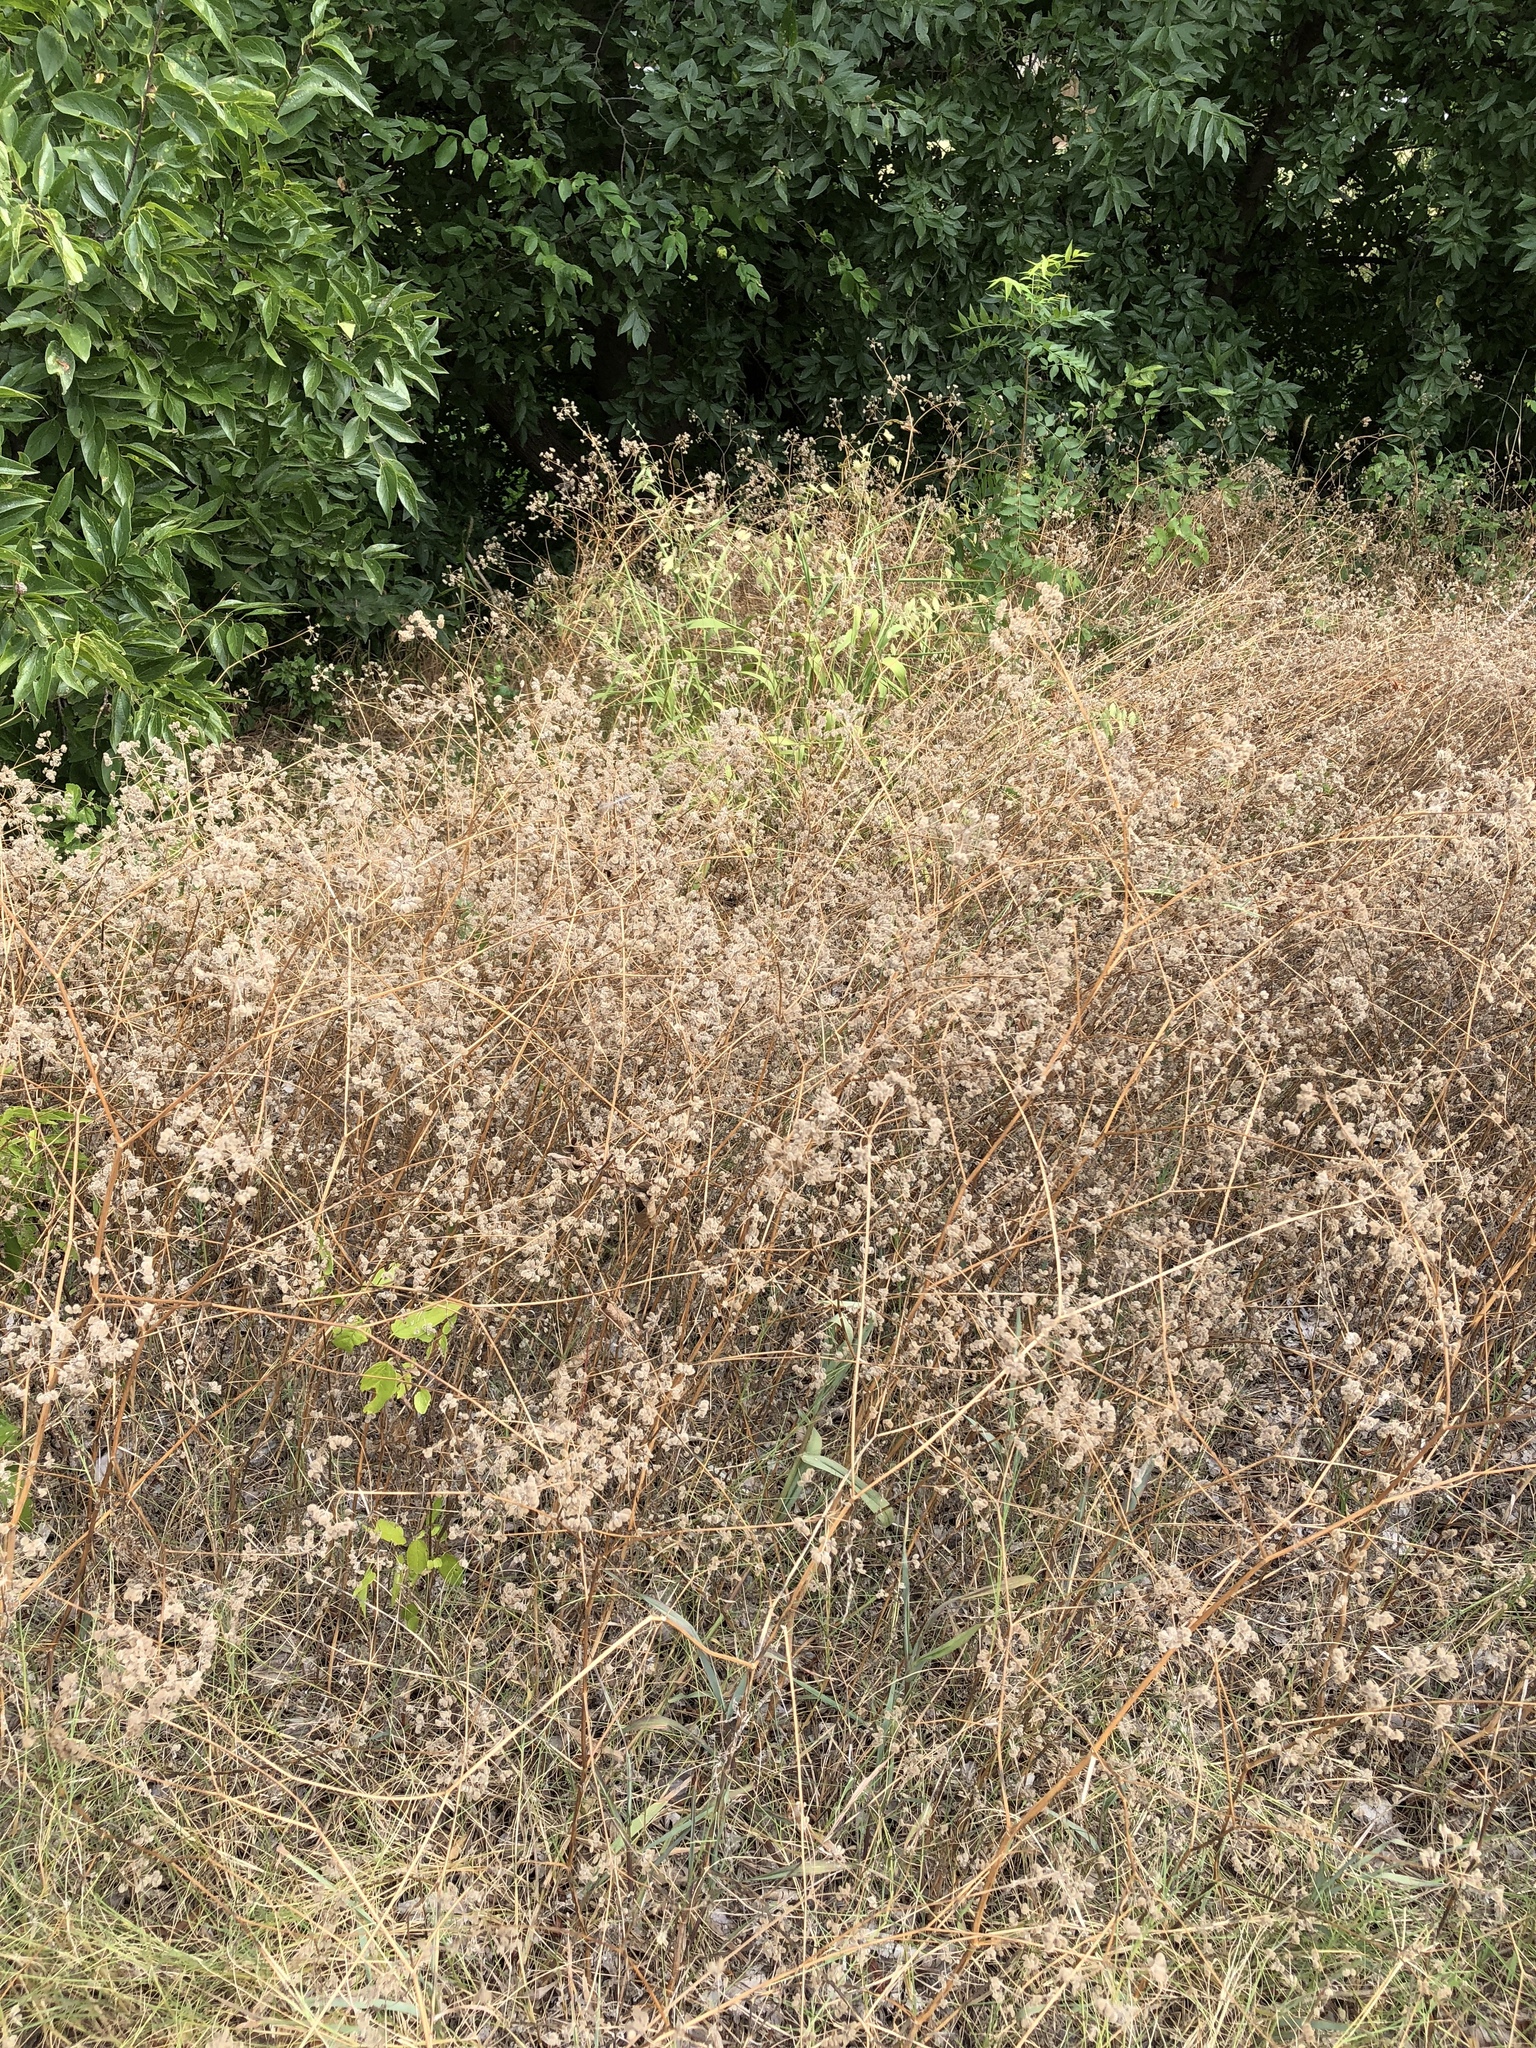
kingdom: Plantae
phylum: Tracheophyta
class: Magnoliopsida
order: Apiales
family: Apiaceae
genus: Torilis
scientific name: Torilis arvensis
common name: Spreading hedge-parsley
